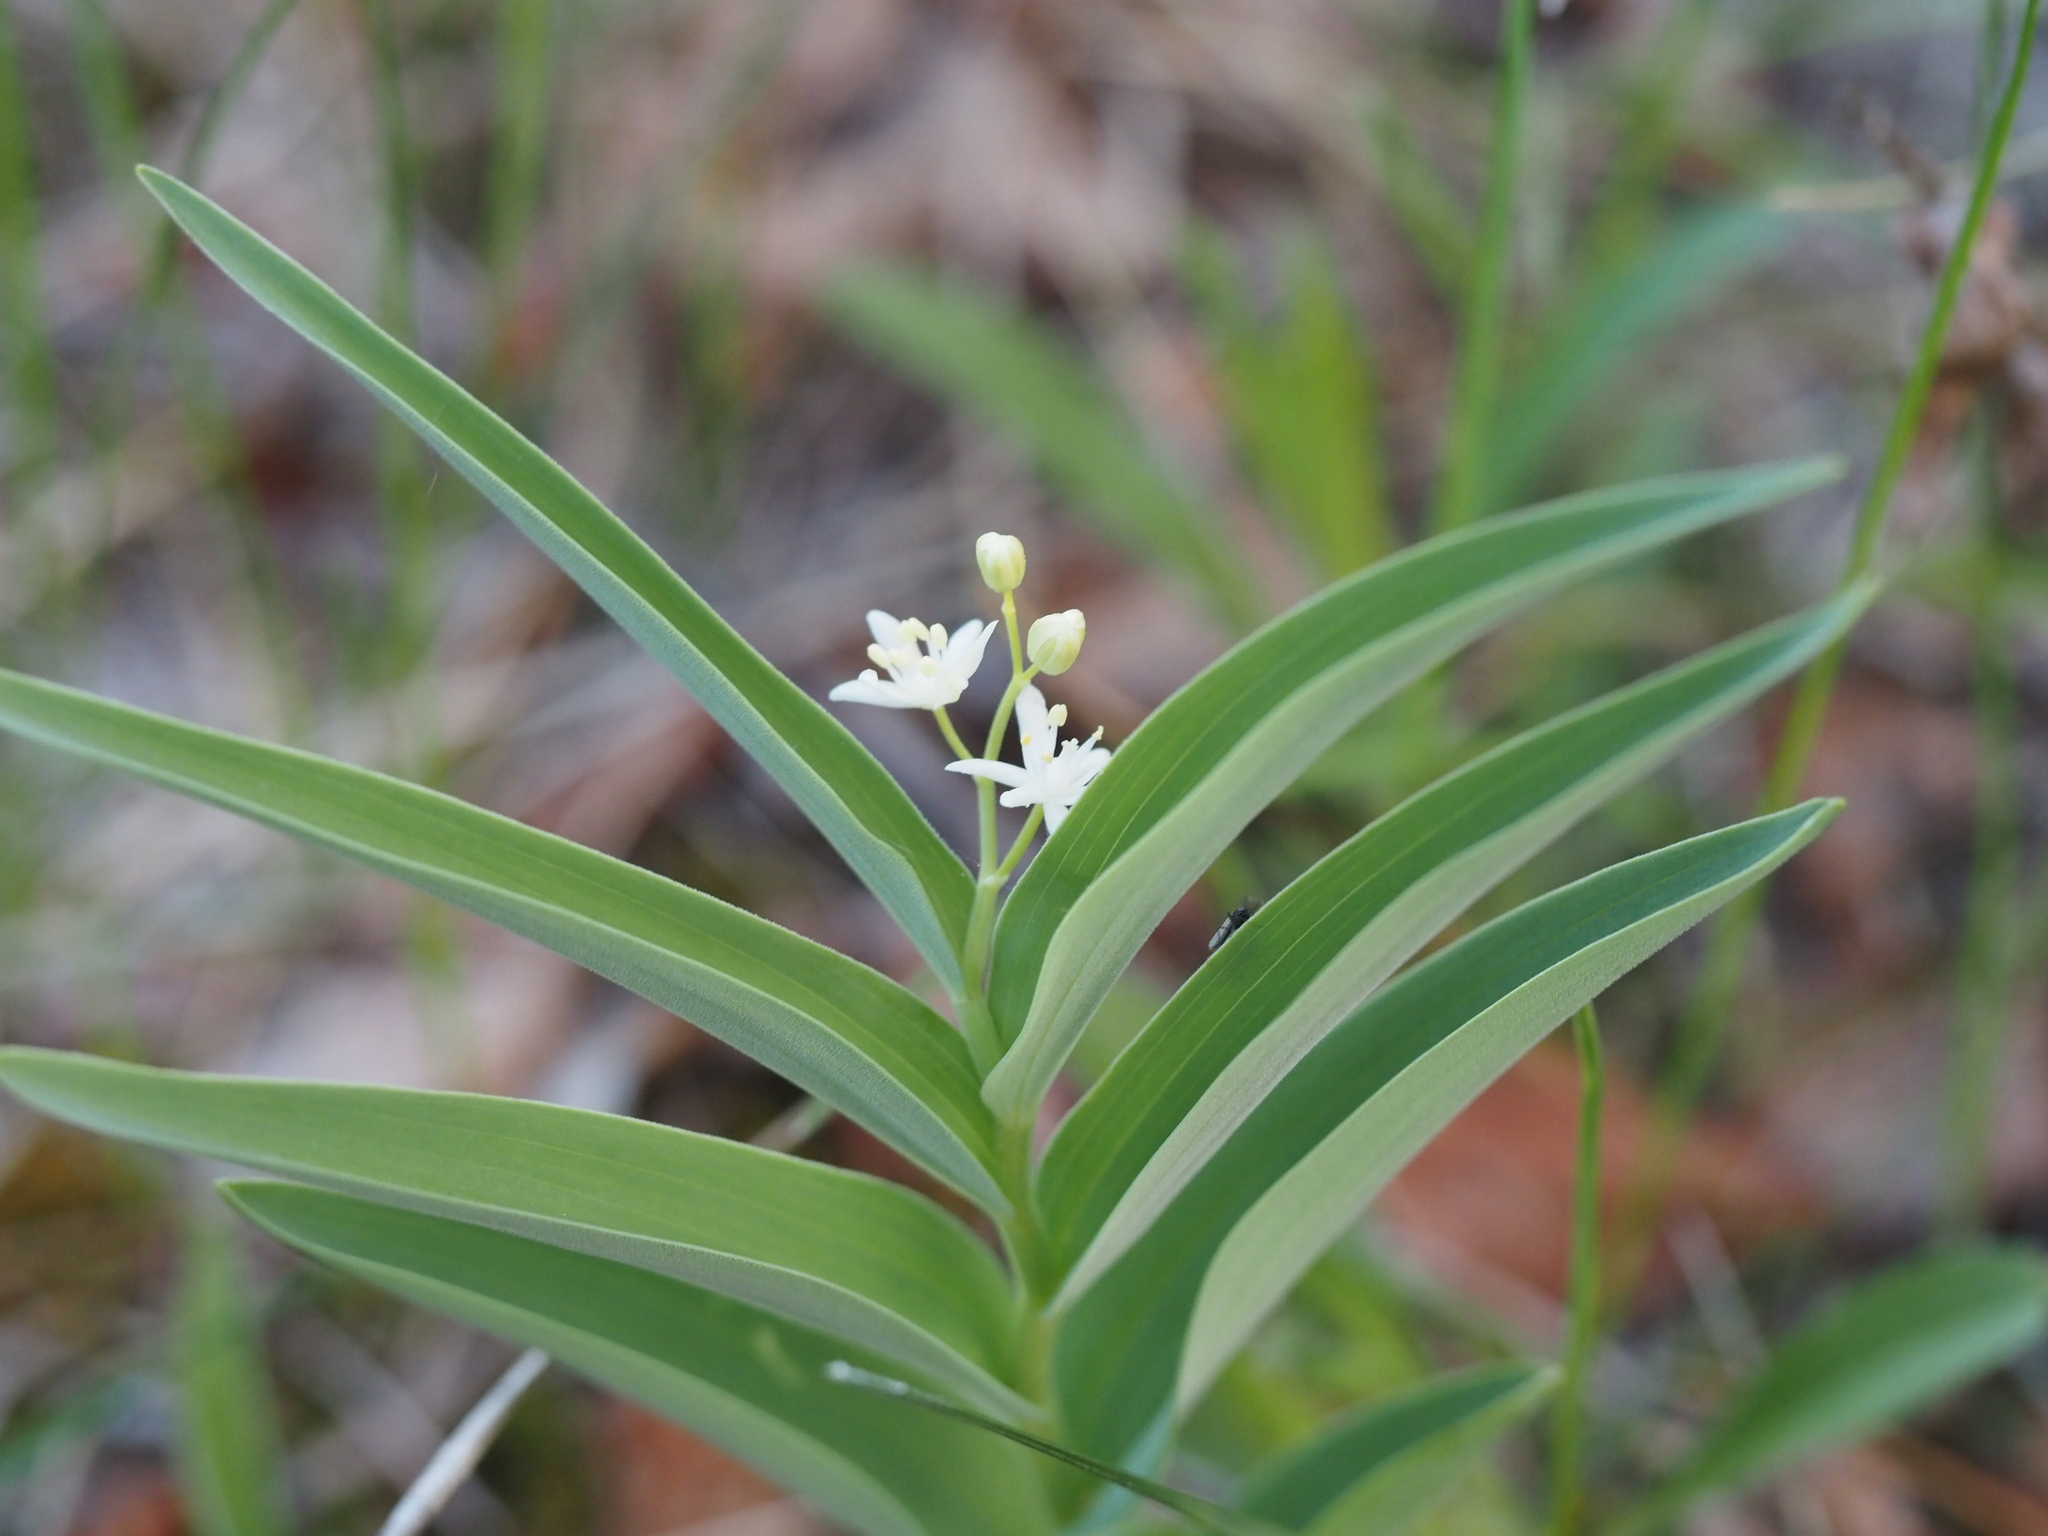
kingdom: Plantae
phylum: Tracheophyta
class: Liliopsida
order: Asparagales
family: Asparagaceae
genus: Maianthemum
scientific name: Maianthemum stellatum
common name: Little false solomon's seal
